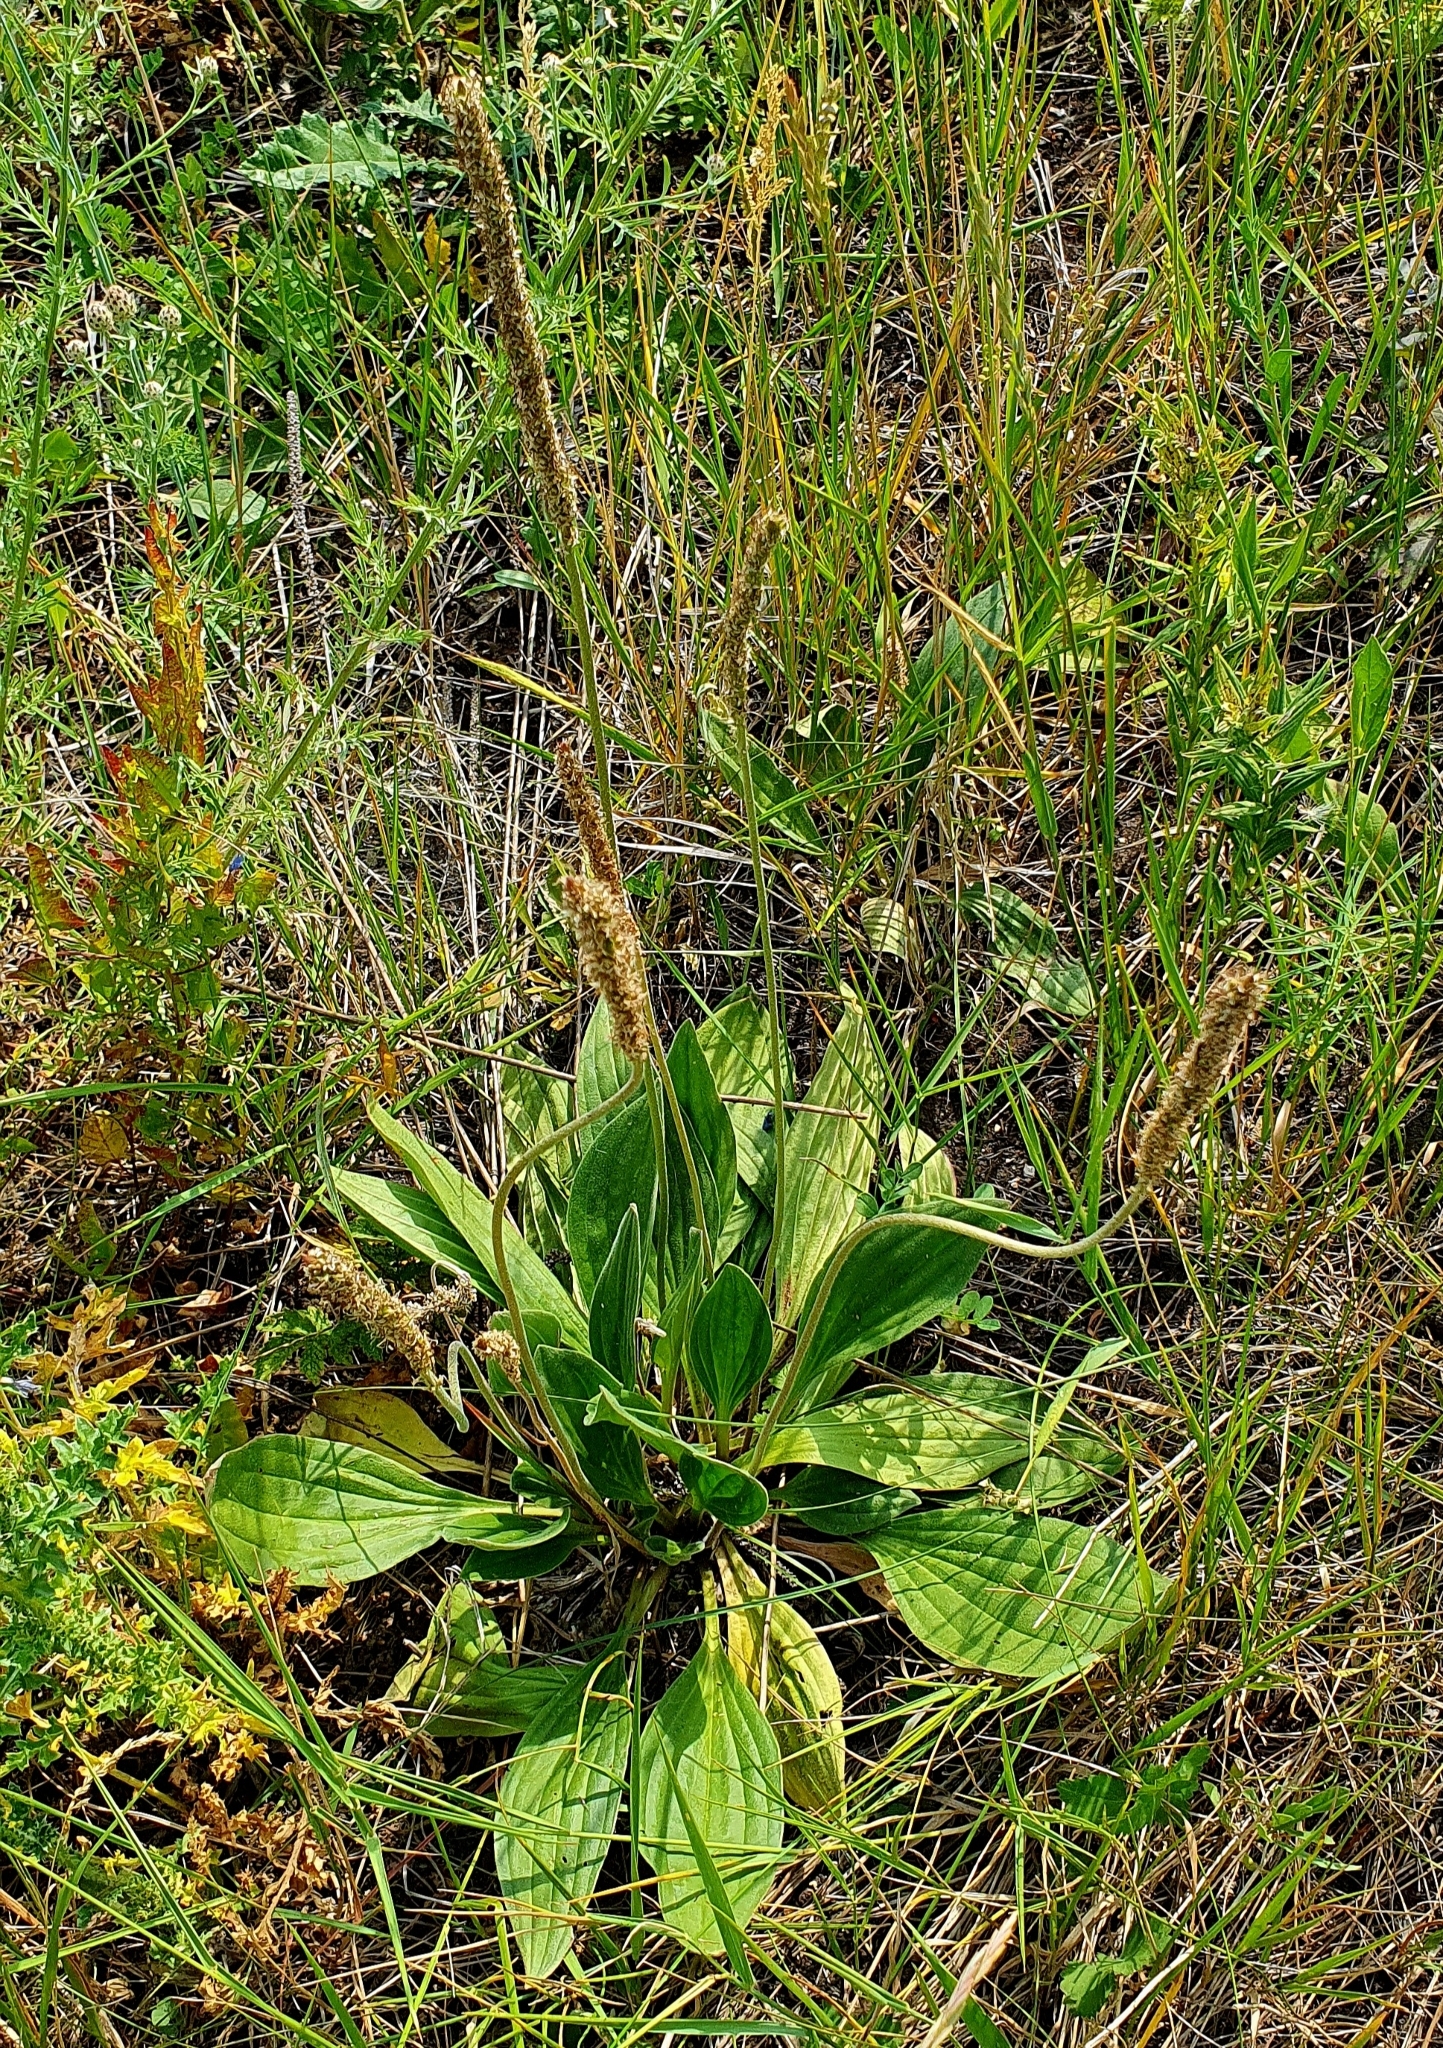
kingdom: Plantae
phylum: Tracheophyta
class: Magnoliopsida
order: Lamiales
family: Plantaginaceae
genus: Plantago
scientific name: Plantago urvillei
